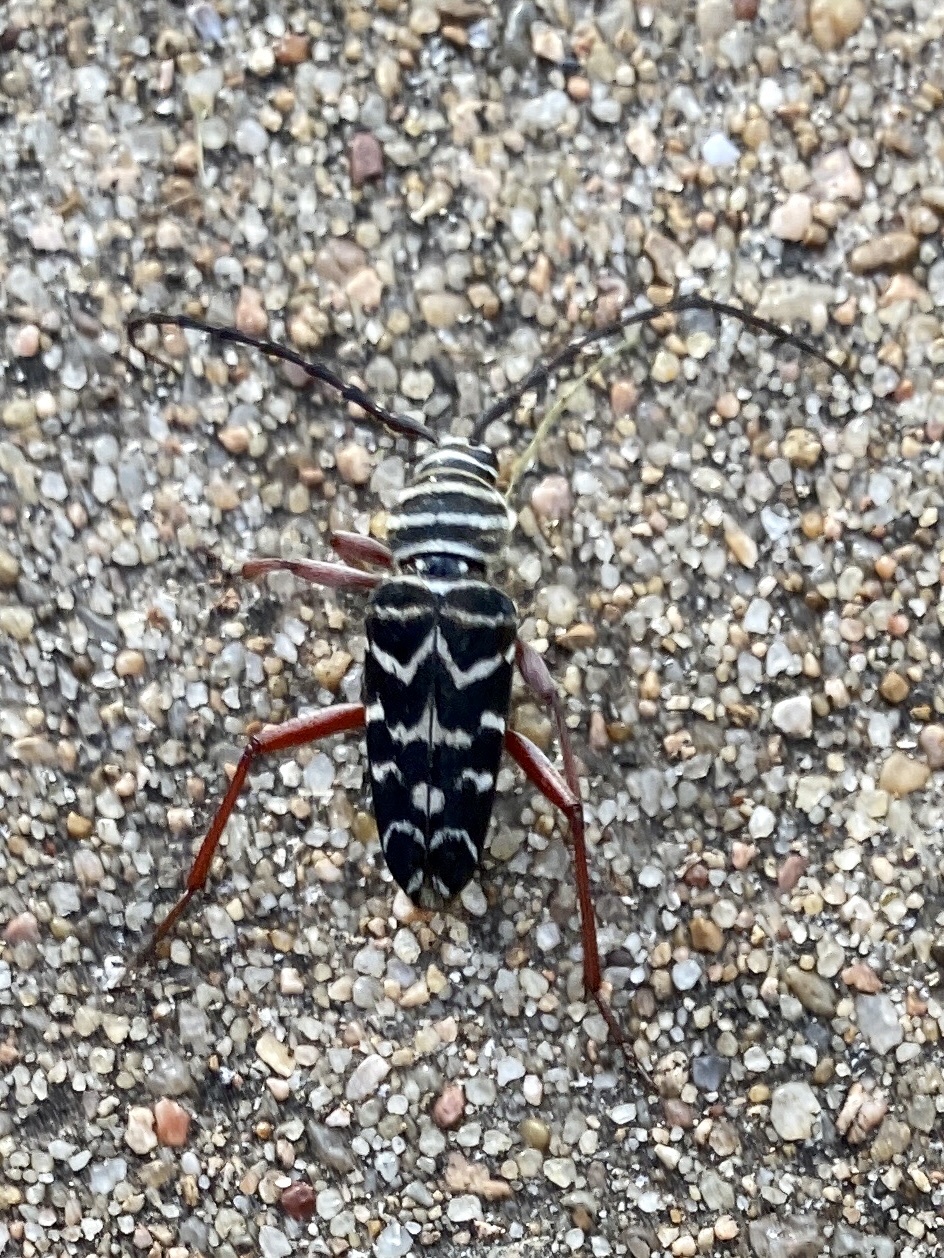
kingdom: Animalia
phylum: Arthropoda
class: Insecta
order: Coleoptera
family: Cerambycidae
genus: Megacyllene
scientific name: Megacyllene caryae
